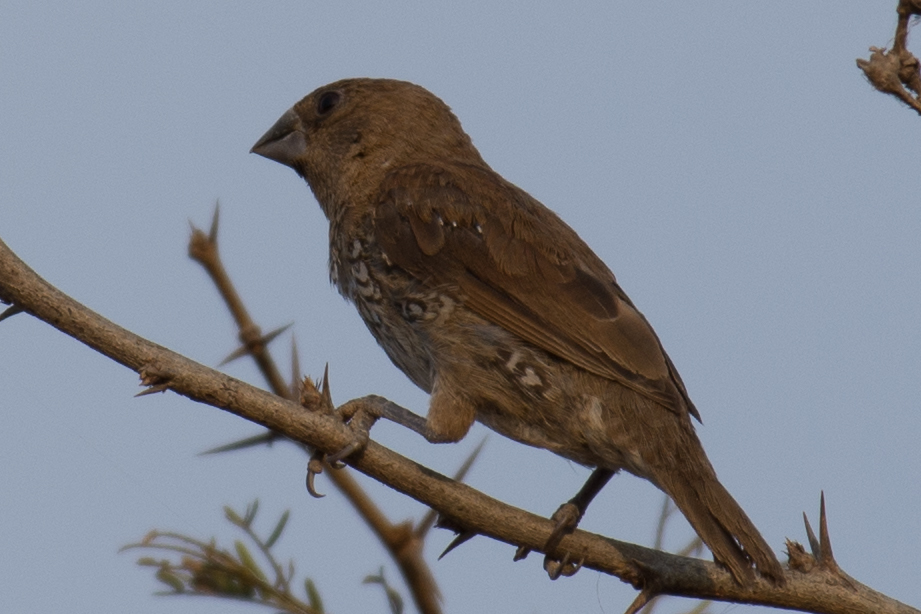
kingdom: Animalia
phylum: Chordata
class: Aves
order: Passeriformes
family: Estrildidae
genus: Lonchura
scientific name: Lonchura punctulata
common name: Scaly-breasted munia
